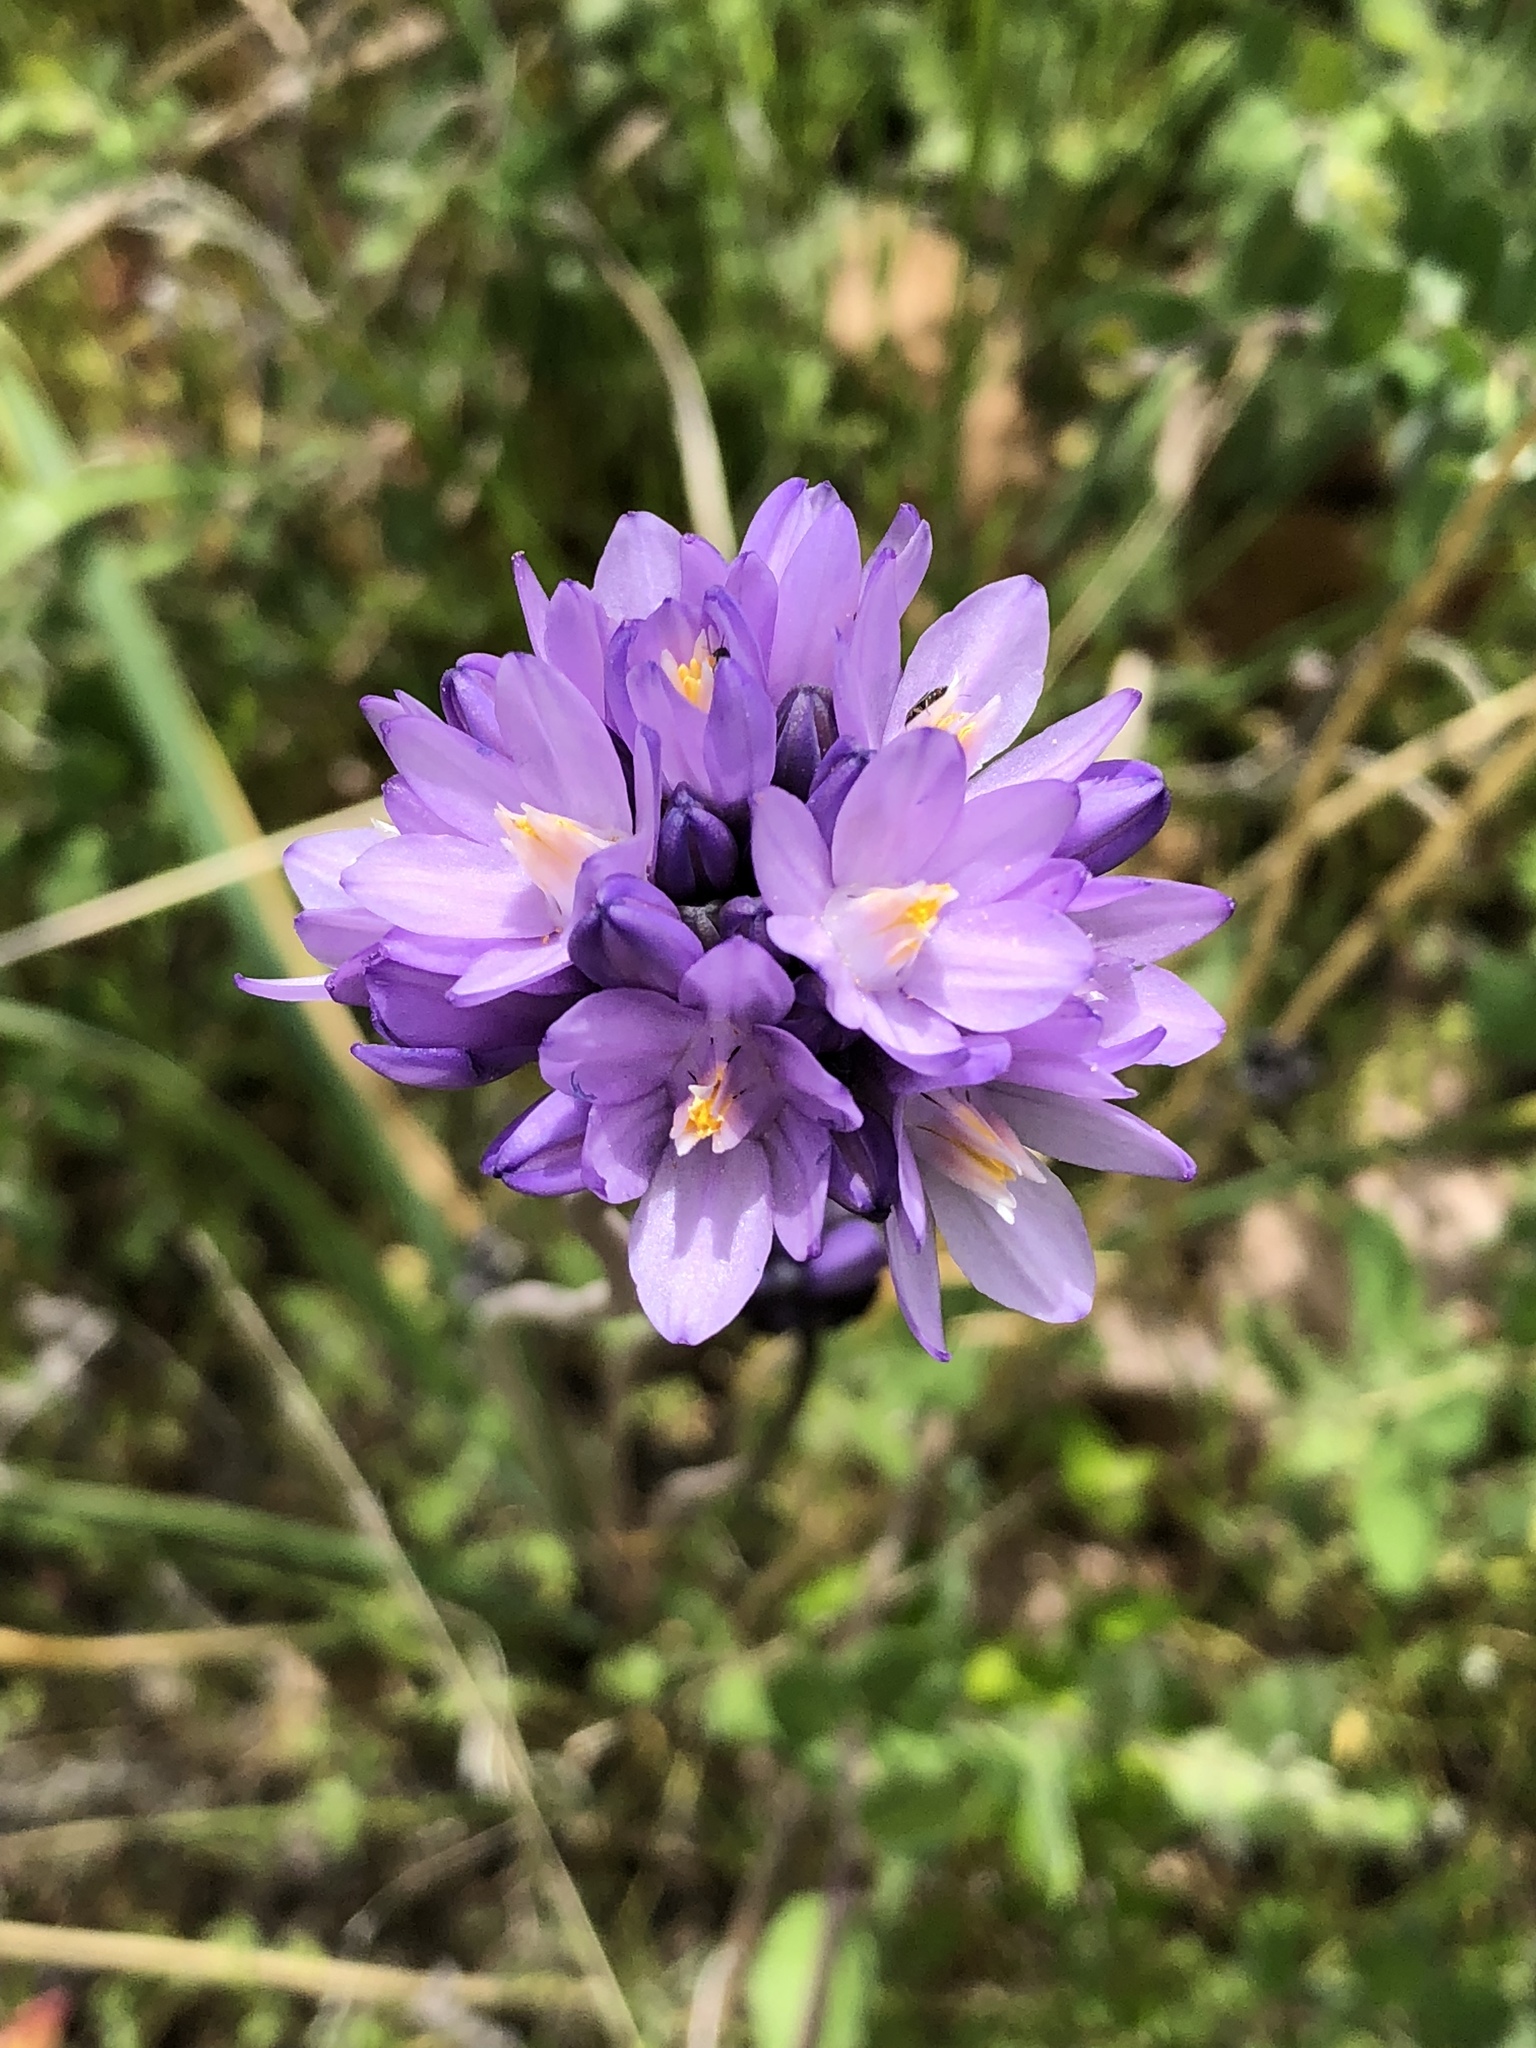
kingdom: Plantae
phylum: Tracheophyta
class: Liliopsida
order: Asparagales
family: Asparagaceae
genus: Dipterostemon
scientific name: Dipterostemon capitatus
